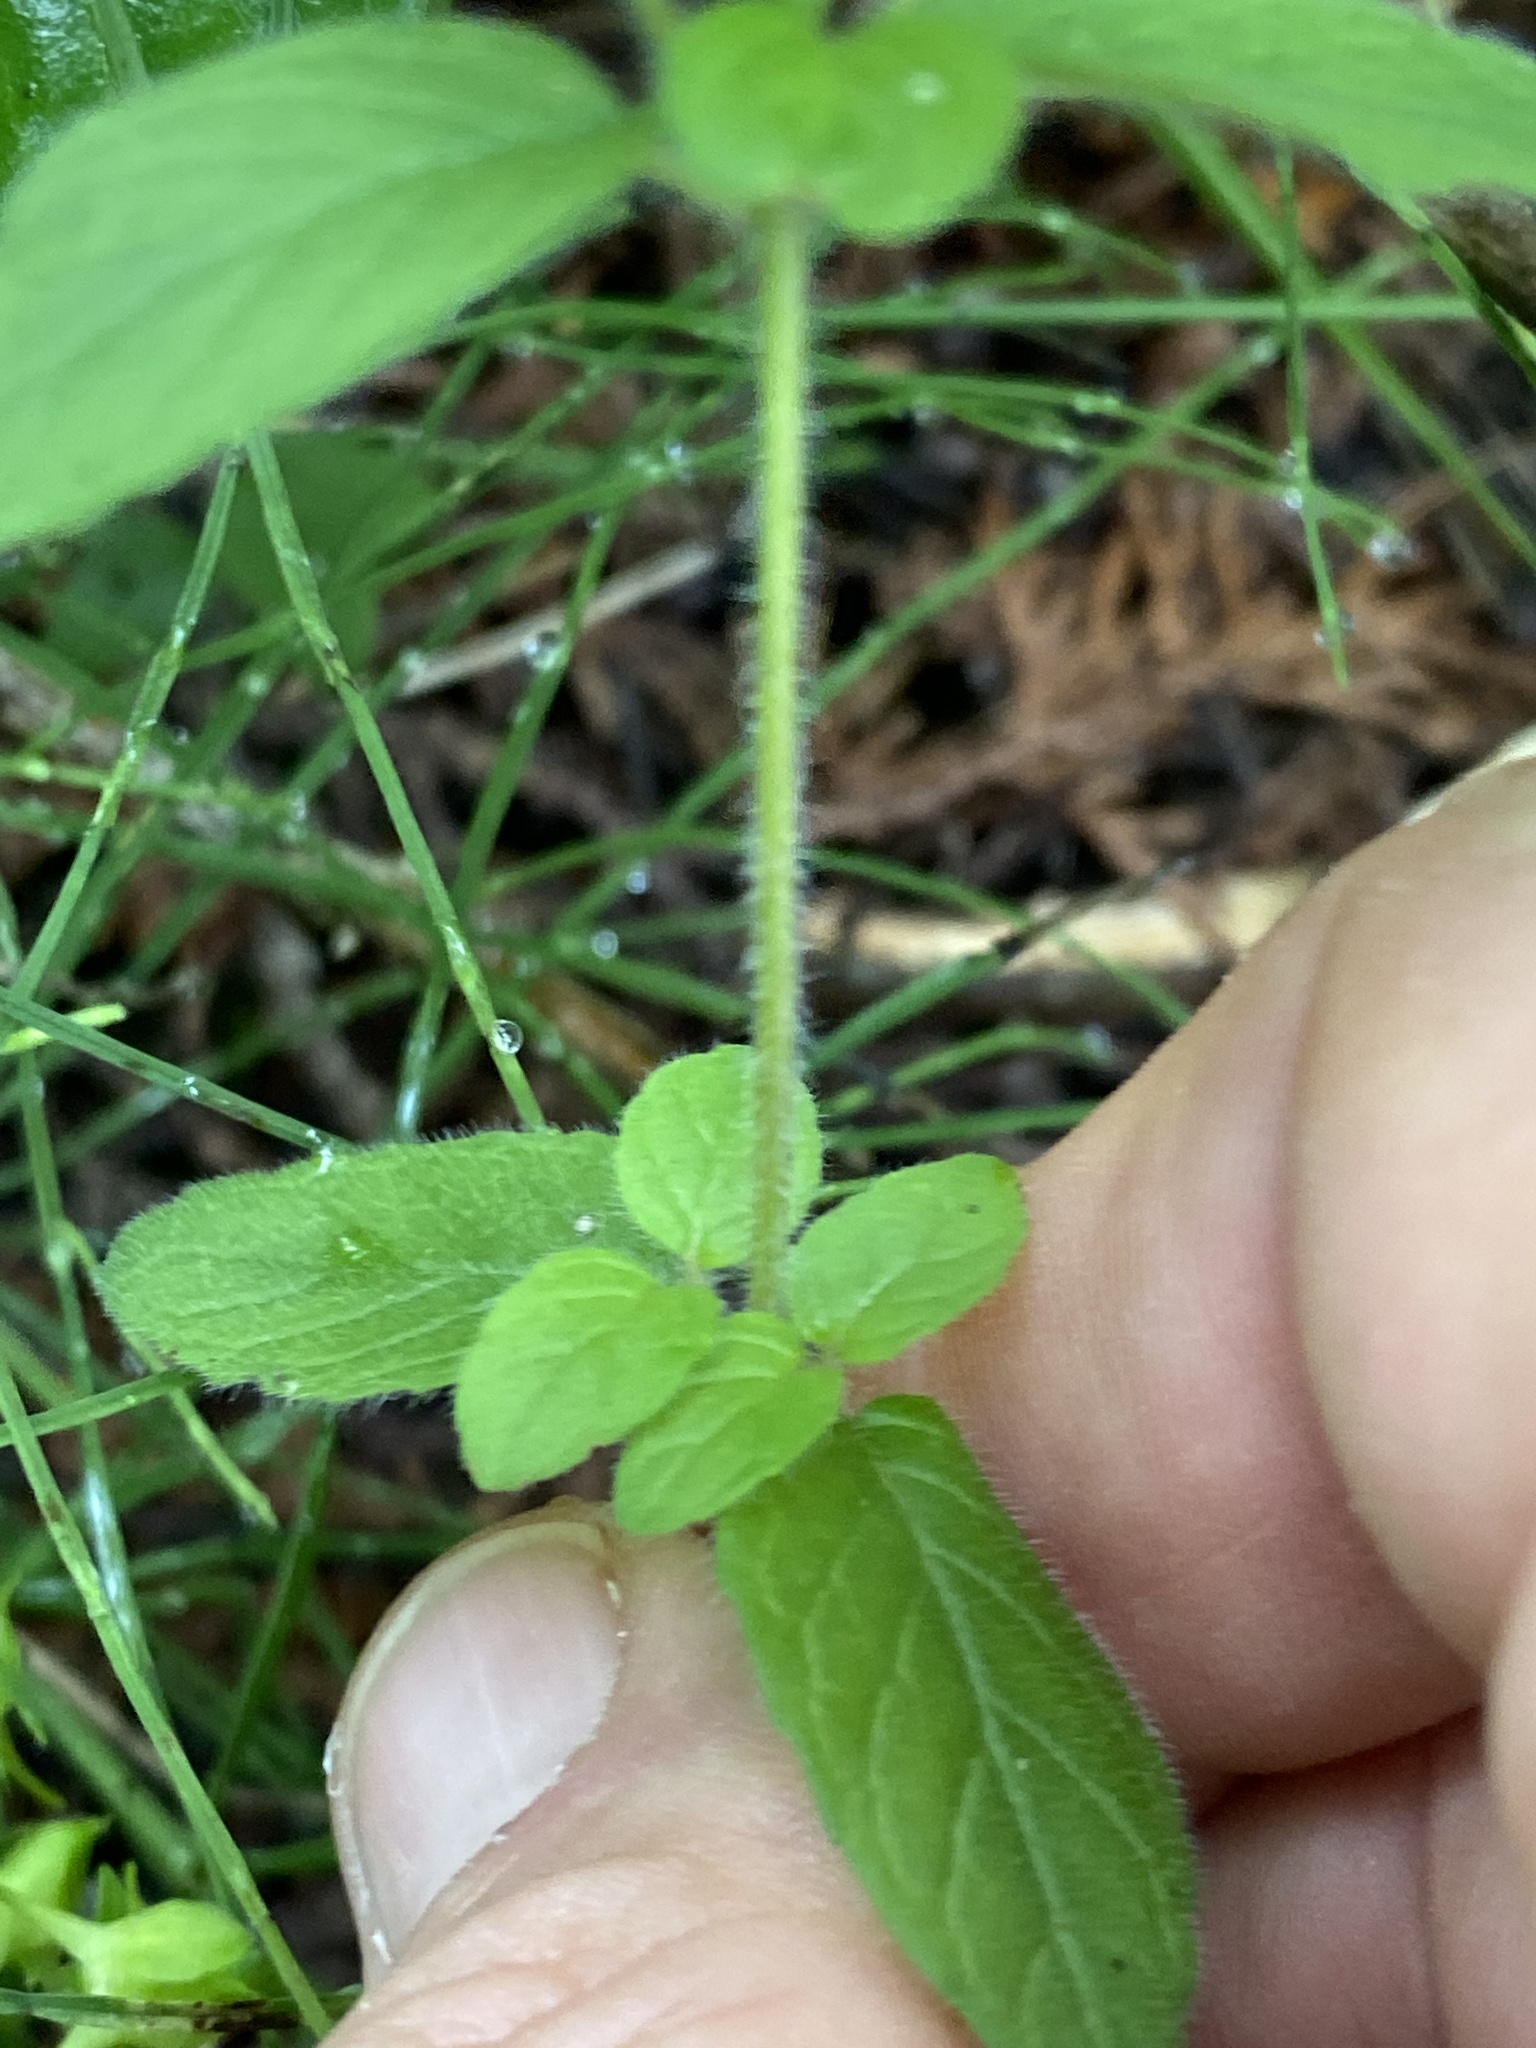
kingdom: Plantae
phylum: Tracheophyta
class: Magnoliopsida
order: Lamiales
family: Lamiaceae
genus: Clinopodium
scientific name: Clinopodium vulgare
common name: Wild basil
